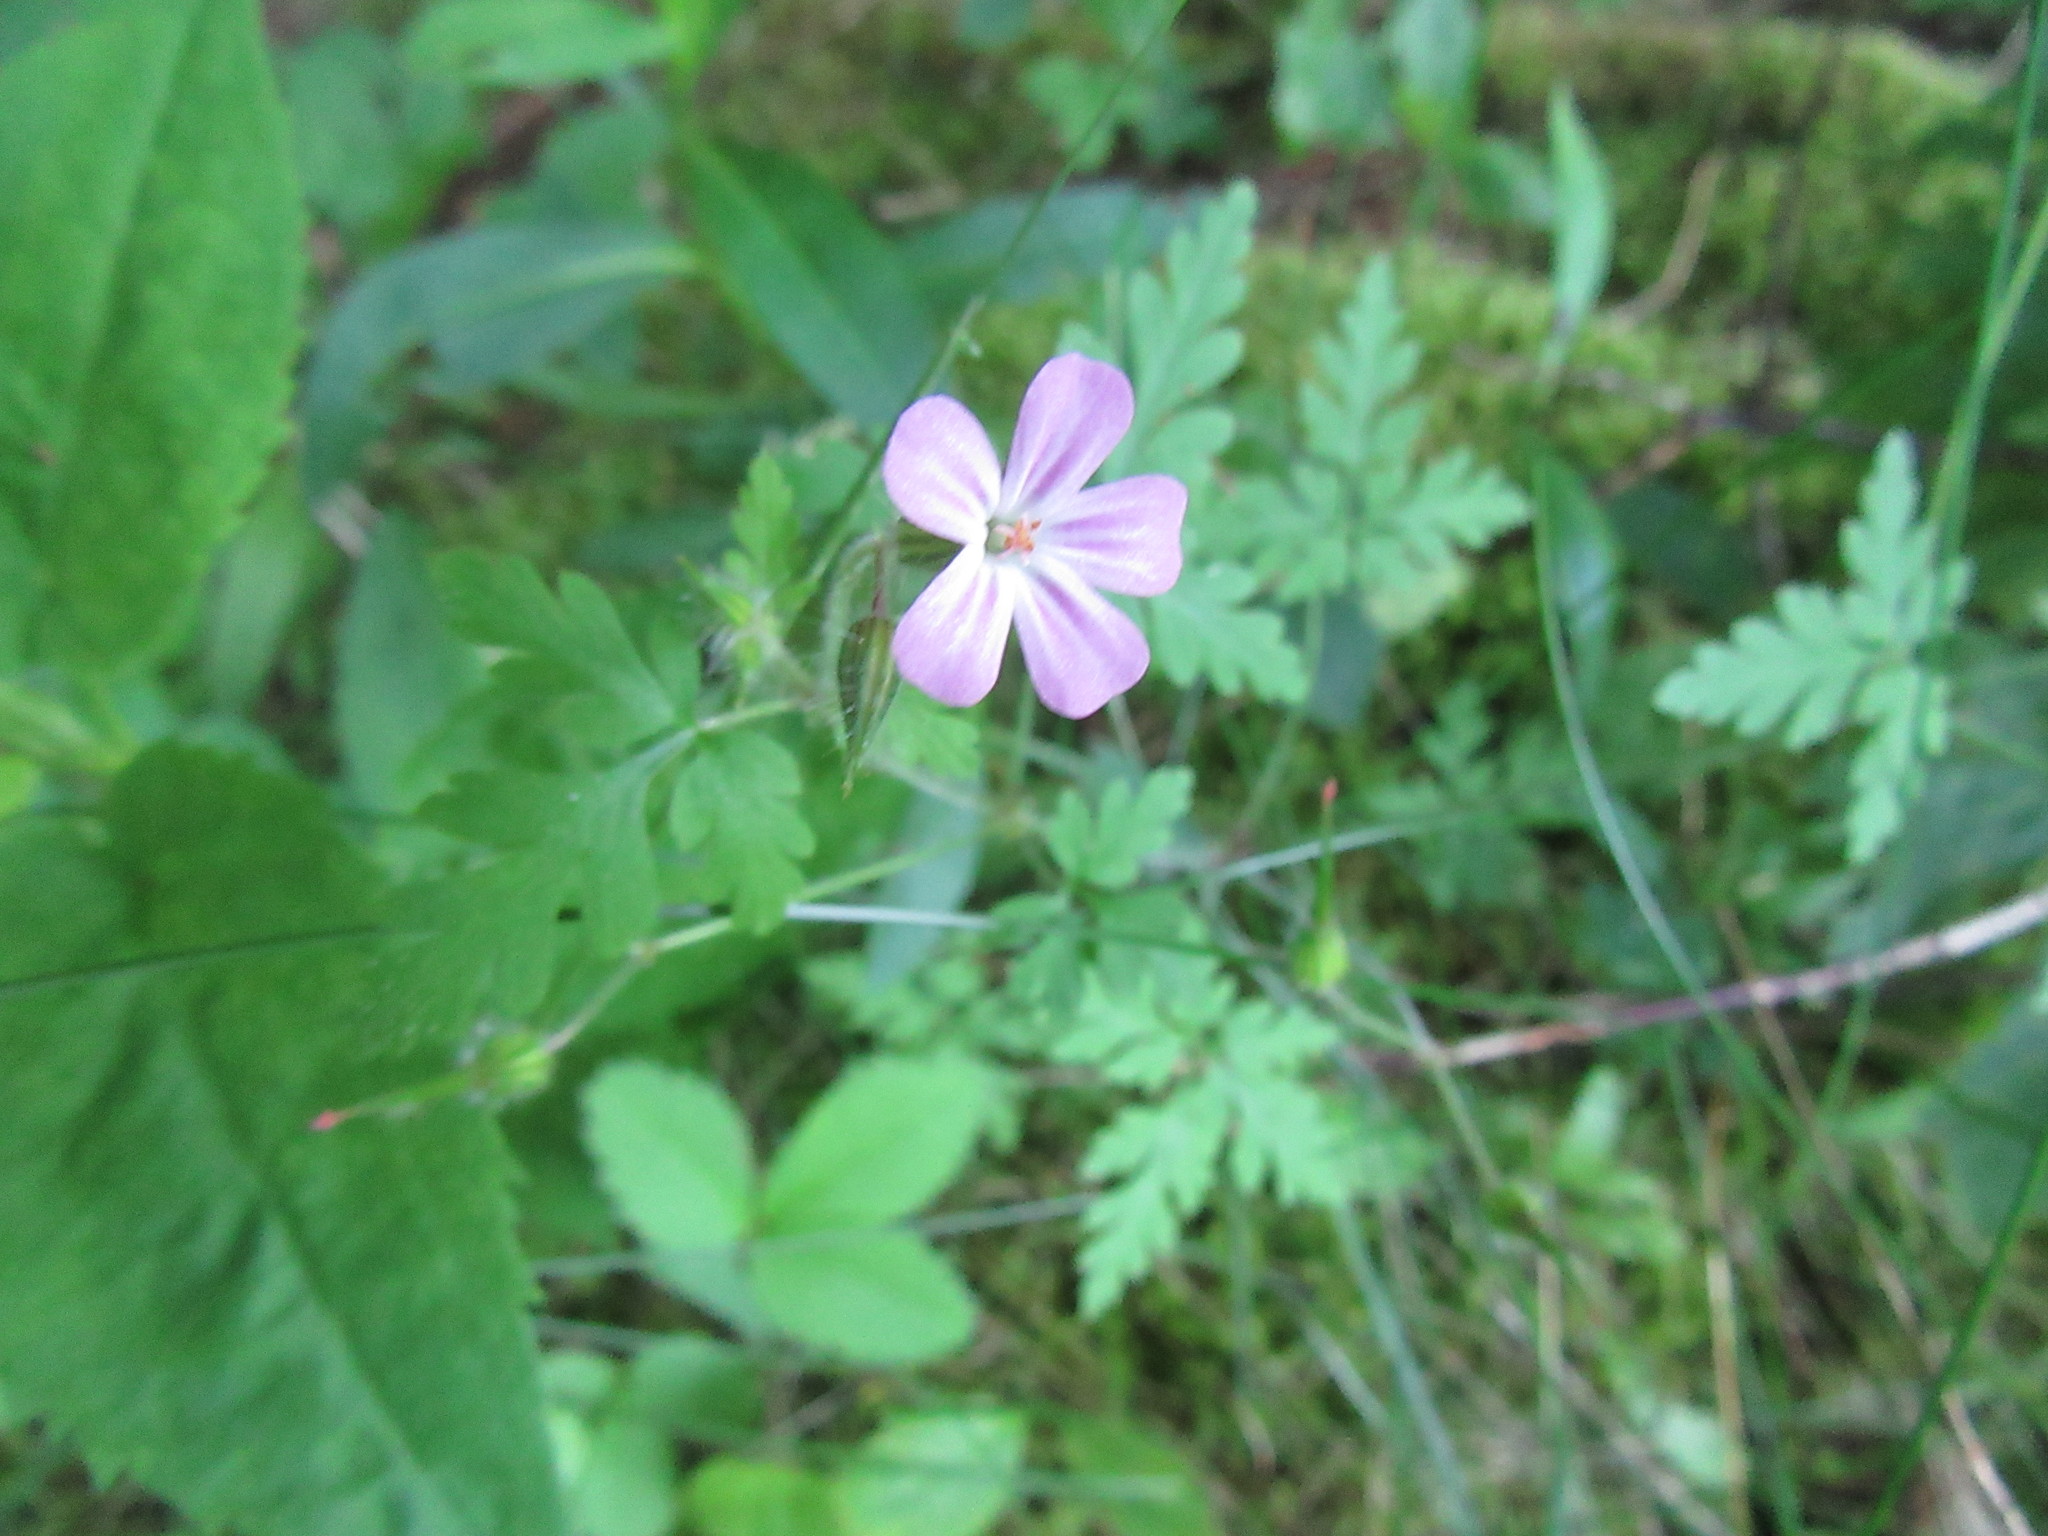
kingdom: Plantae
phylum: Tracheophyta
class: Magnoliopsida
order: Geraniales
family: Geraniaceae
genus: Geranium
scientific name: Geranium robertianum
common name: Herb-robert
